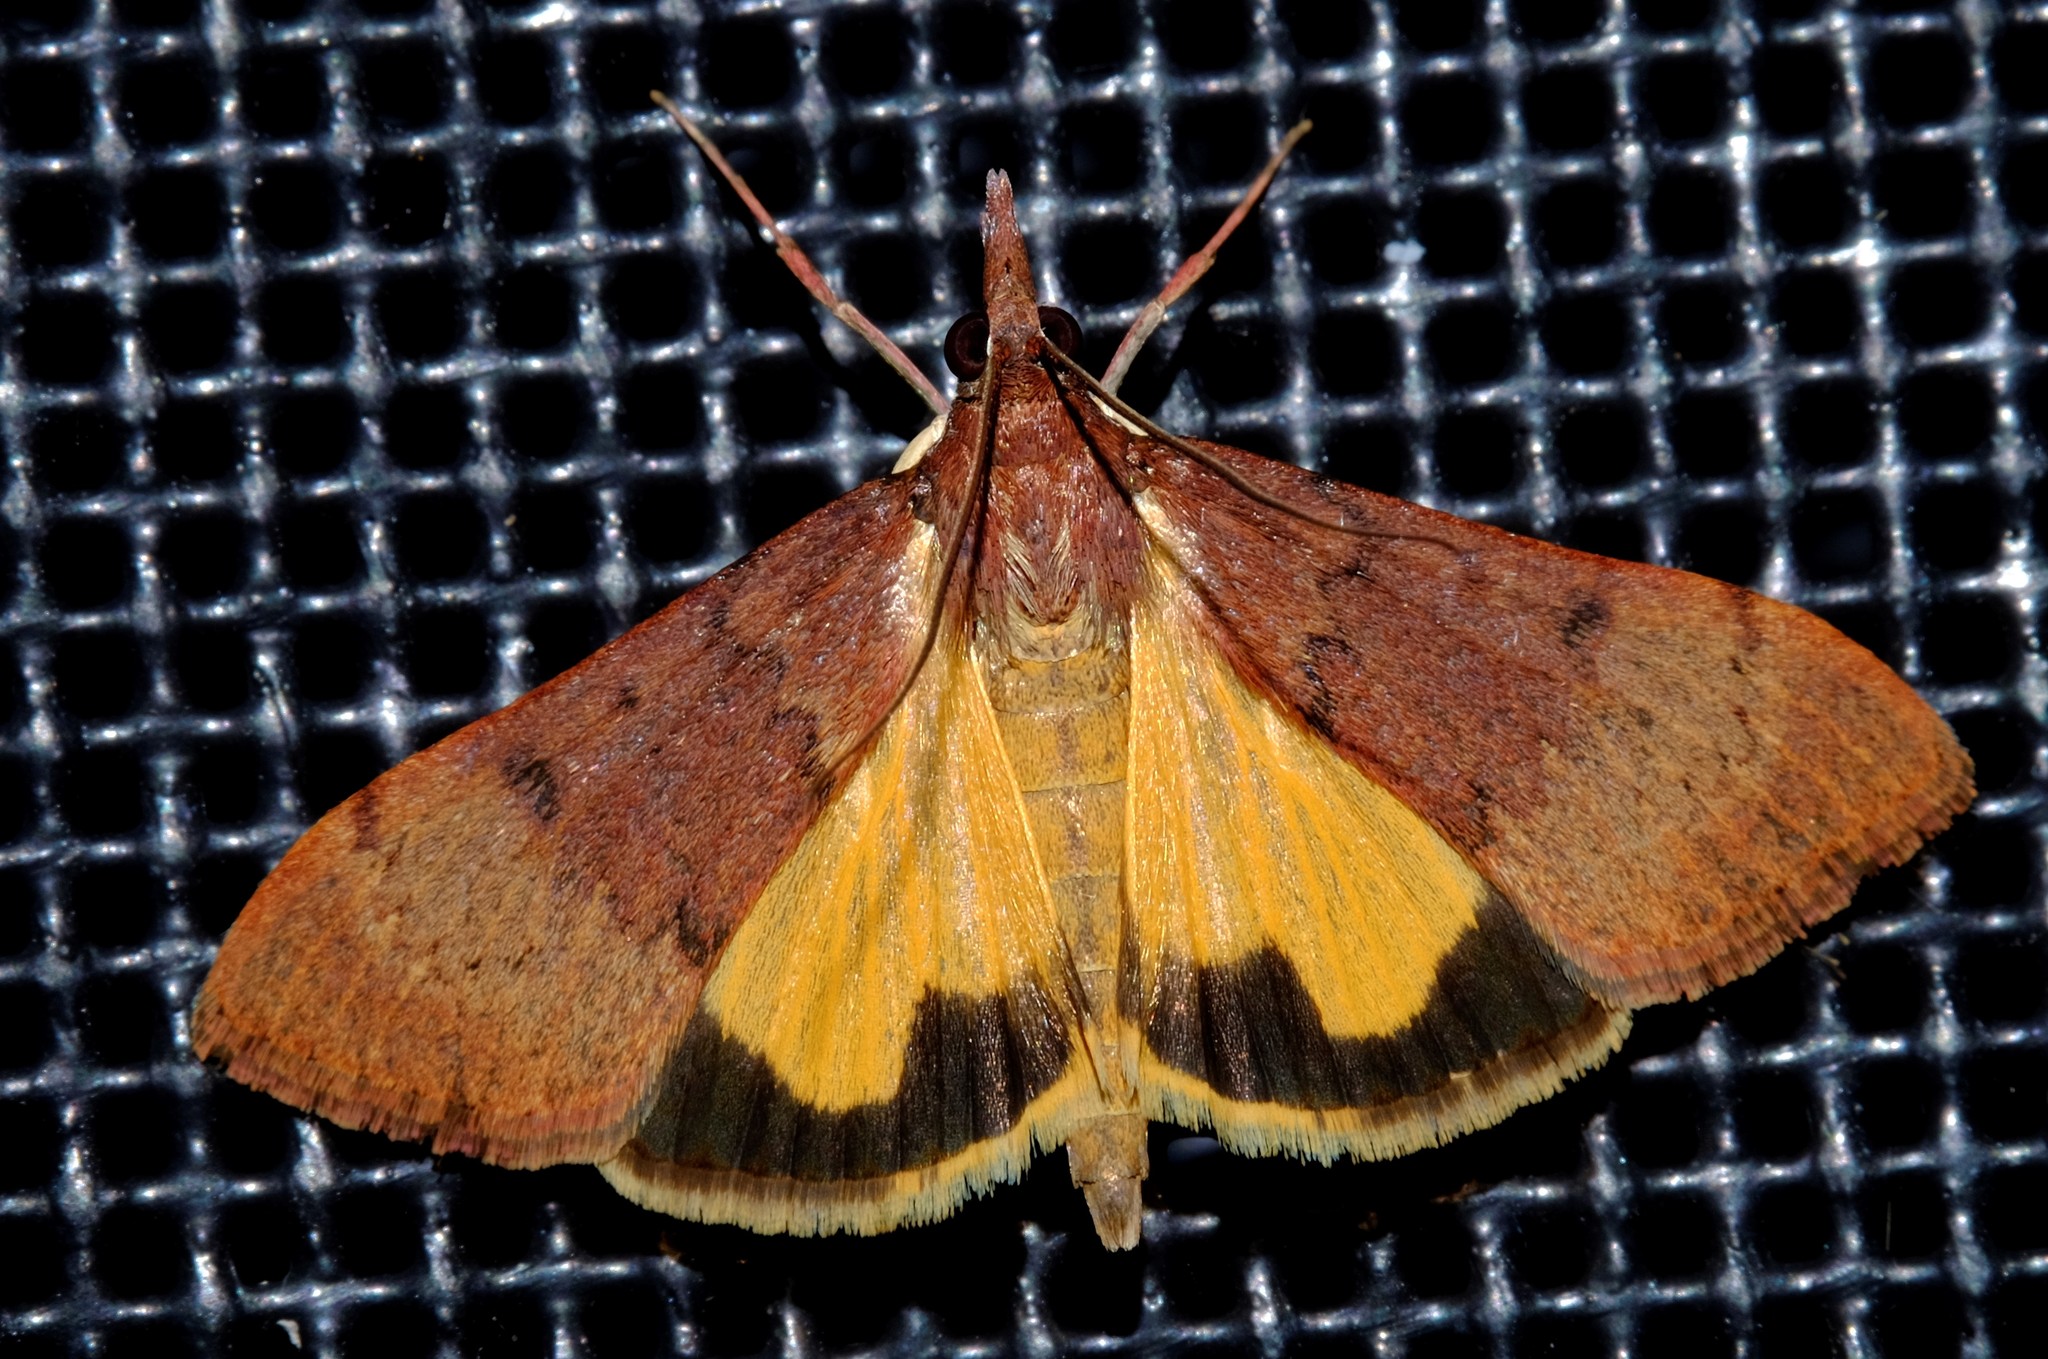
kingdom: Animalia
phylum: Arthropoda
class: Insecta
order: Lepidoptera
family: Crambidae
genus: Uresiphita
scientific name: Uresiphita ornithopteralis
